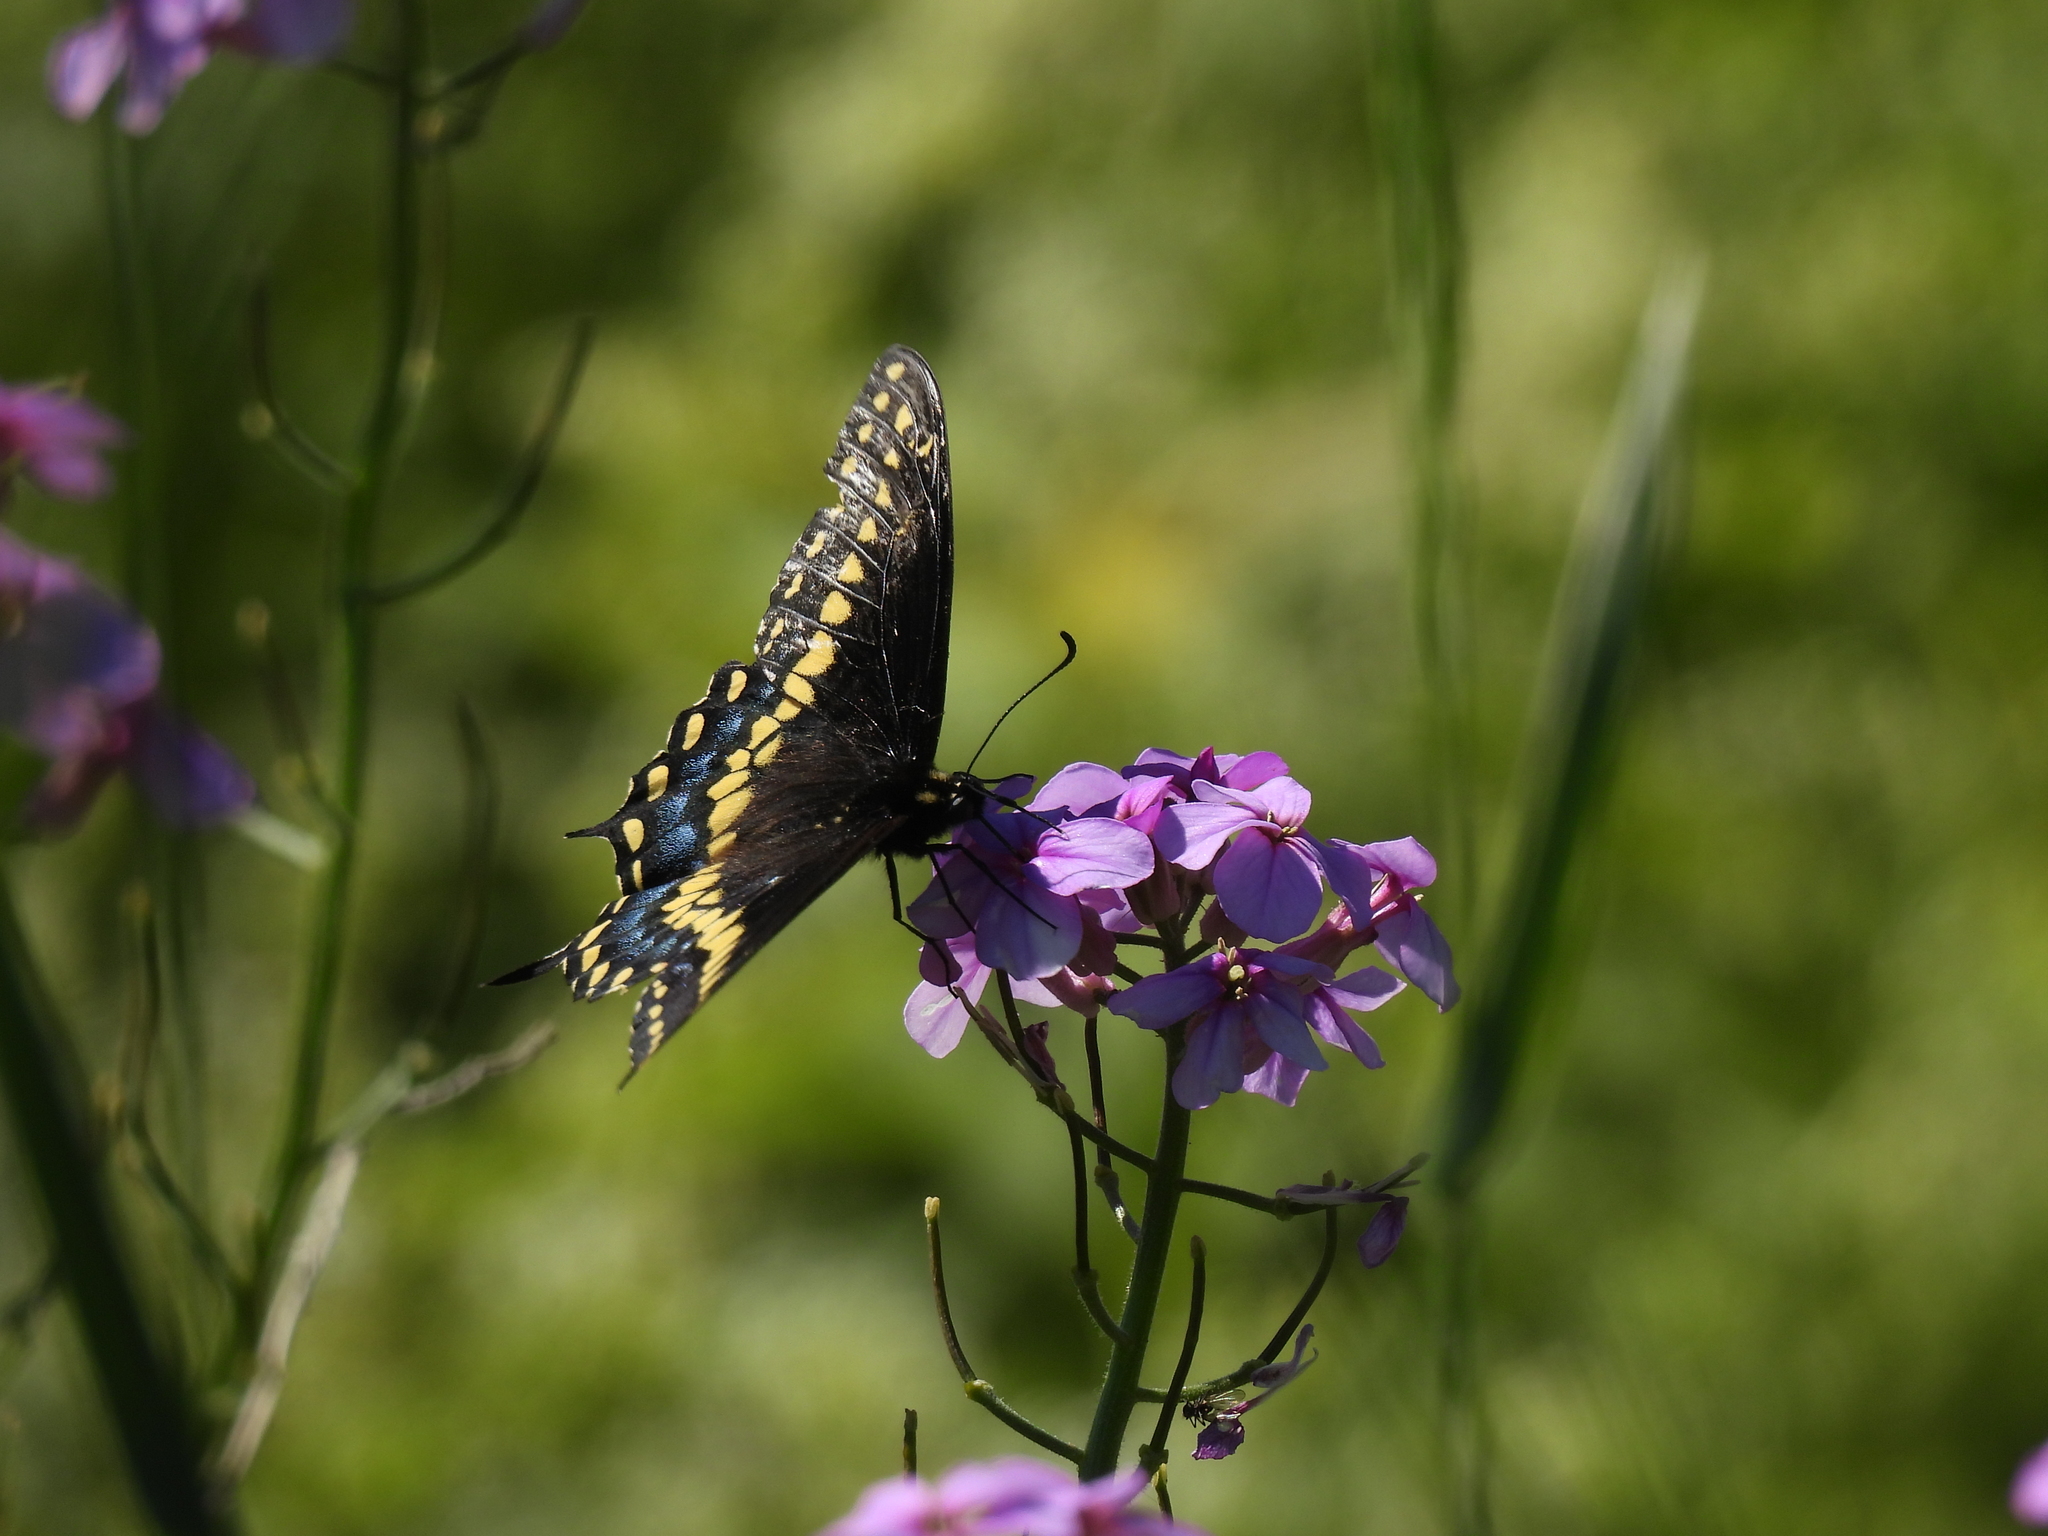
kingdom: Animalia
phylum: Arthropoda
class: Insecta
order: Lepidoptera
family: Papilionidae
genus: Papilio
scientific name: Papilio polyxenes
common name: Black swallowtail
